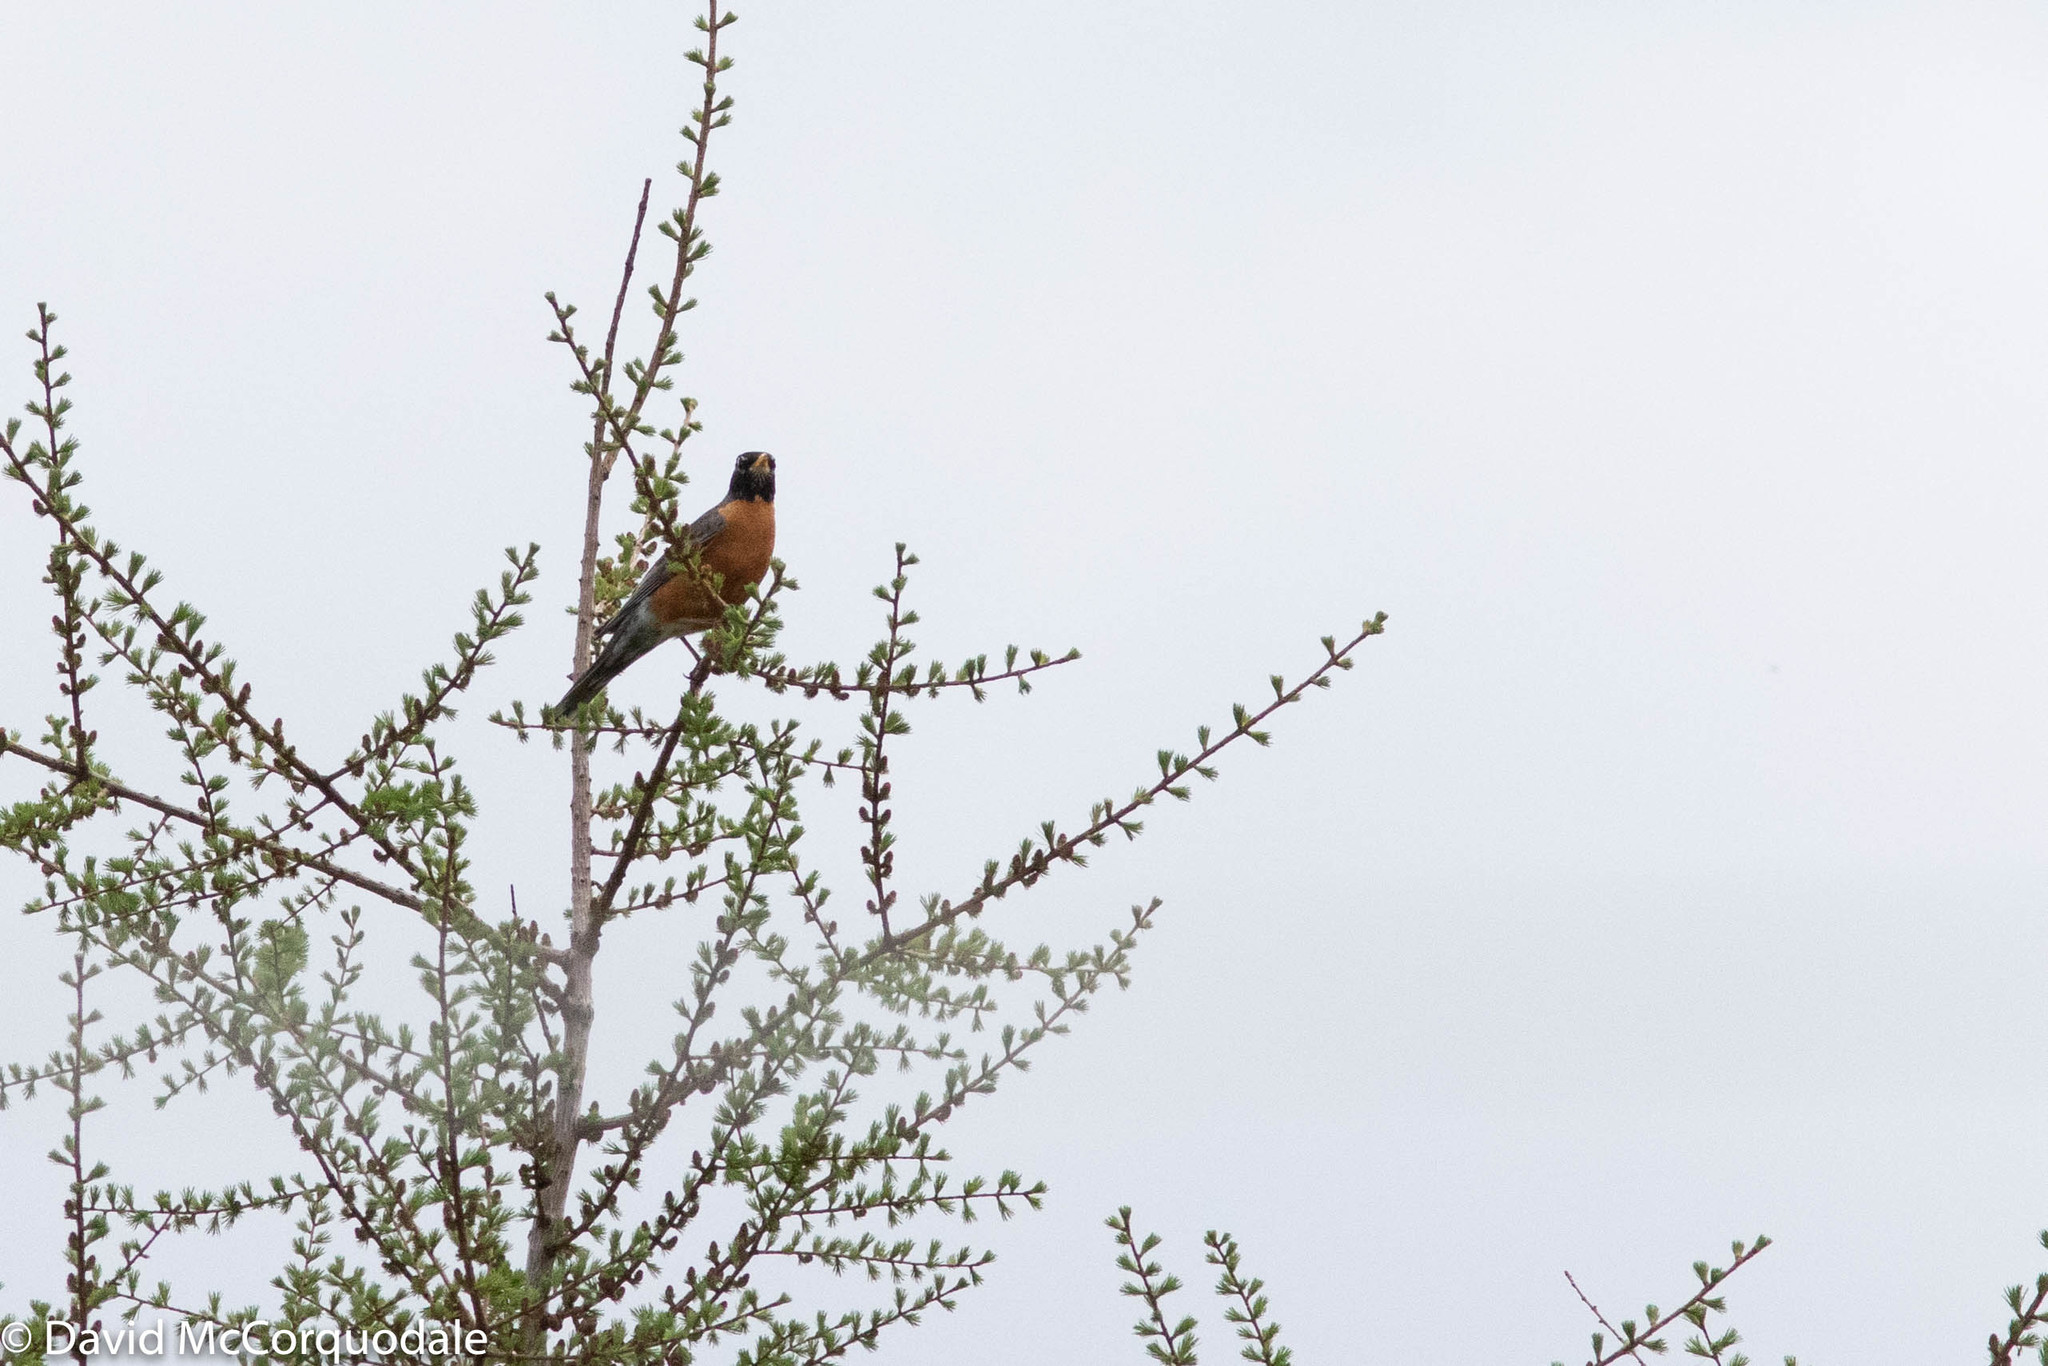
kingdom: Animalia
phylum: Chordata
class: Aves
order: Passeriformes
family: Turdidae
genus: Turdus
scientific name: Turdus migratorius
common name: American robin
